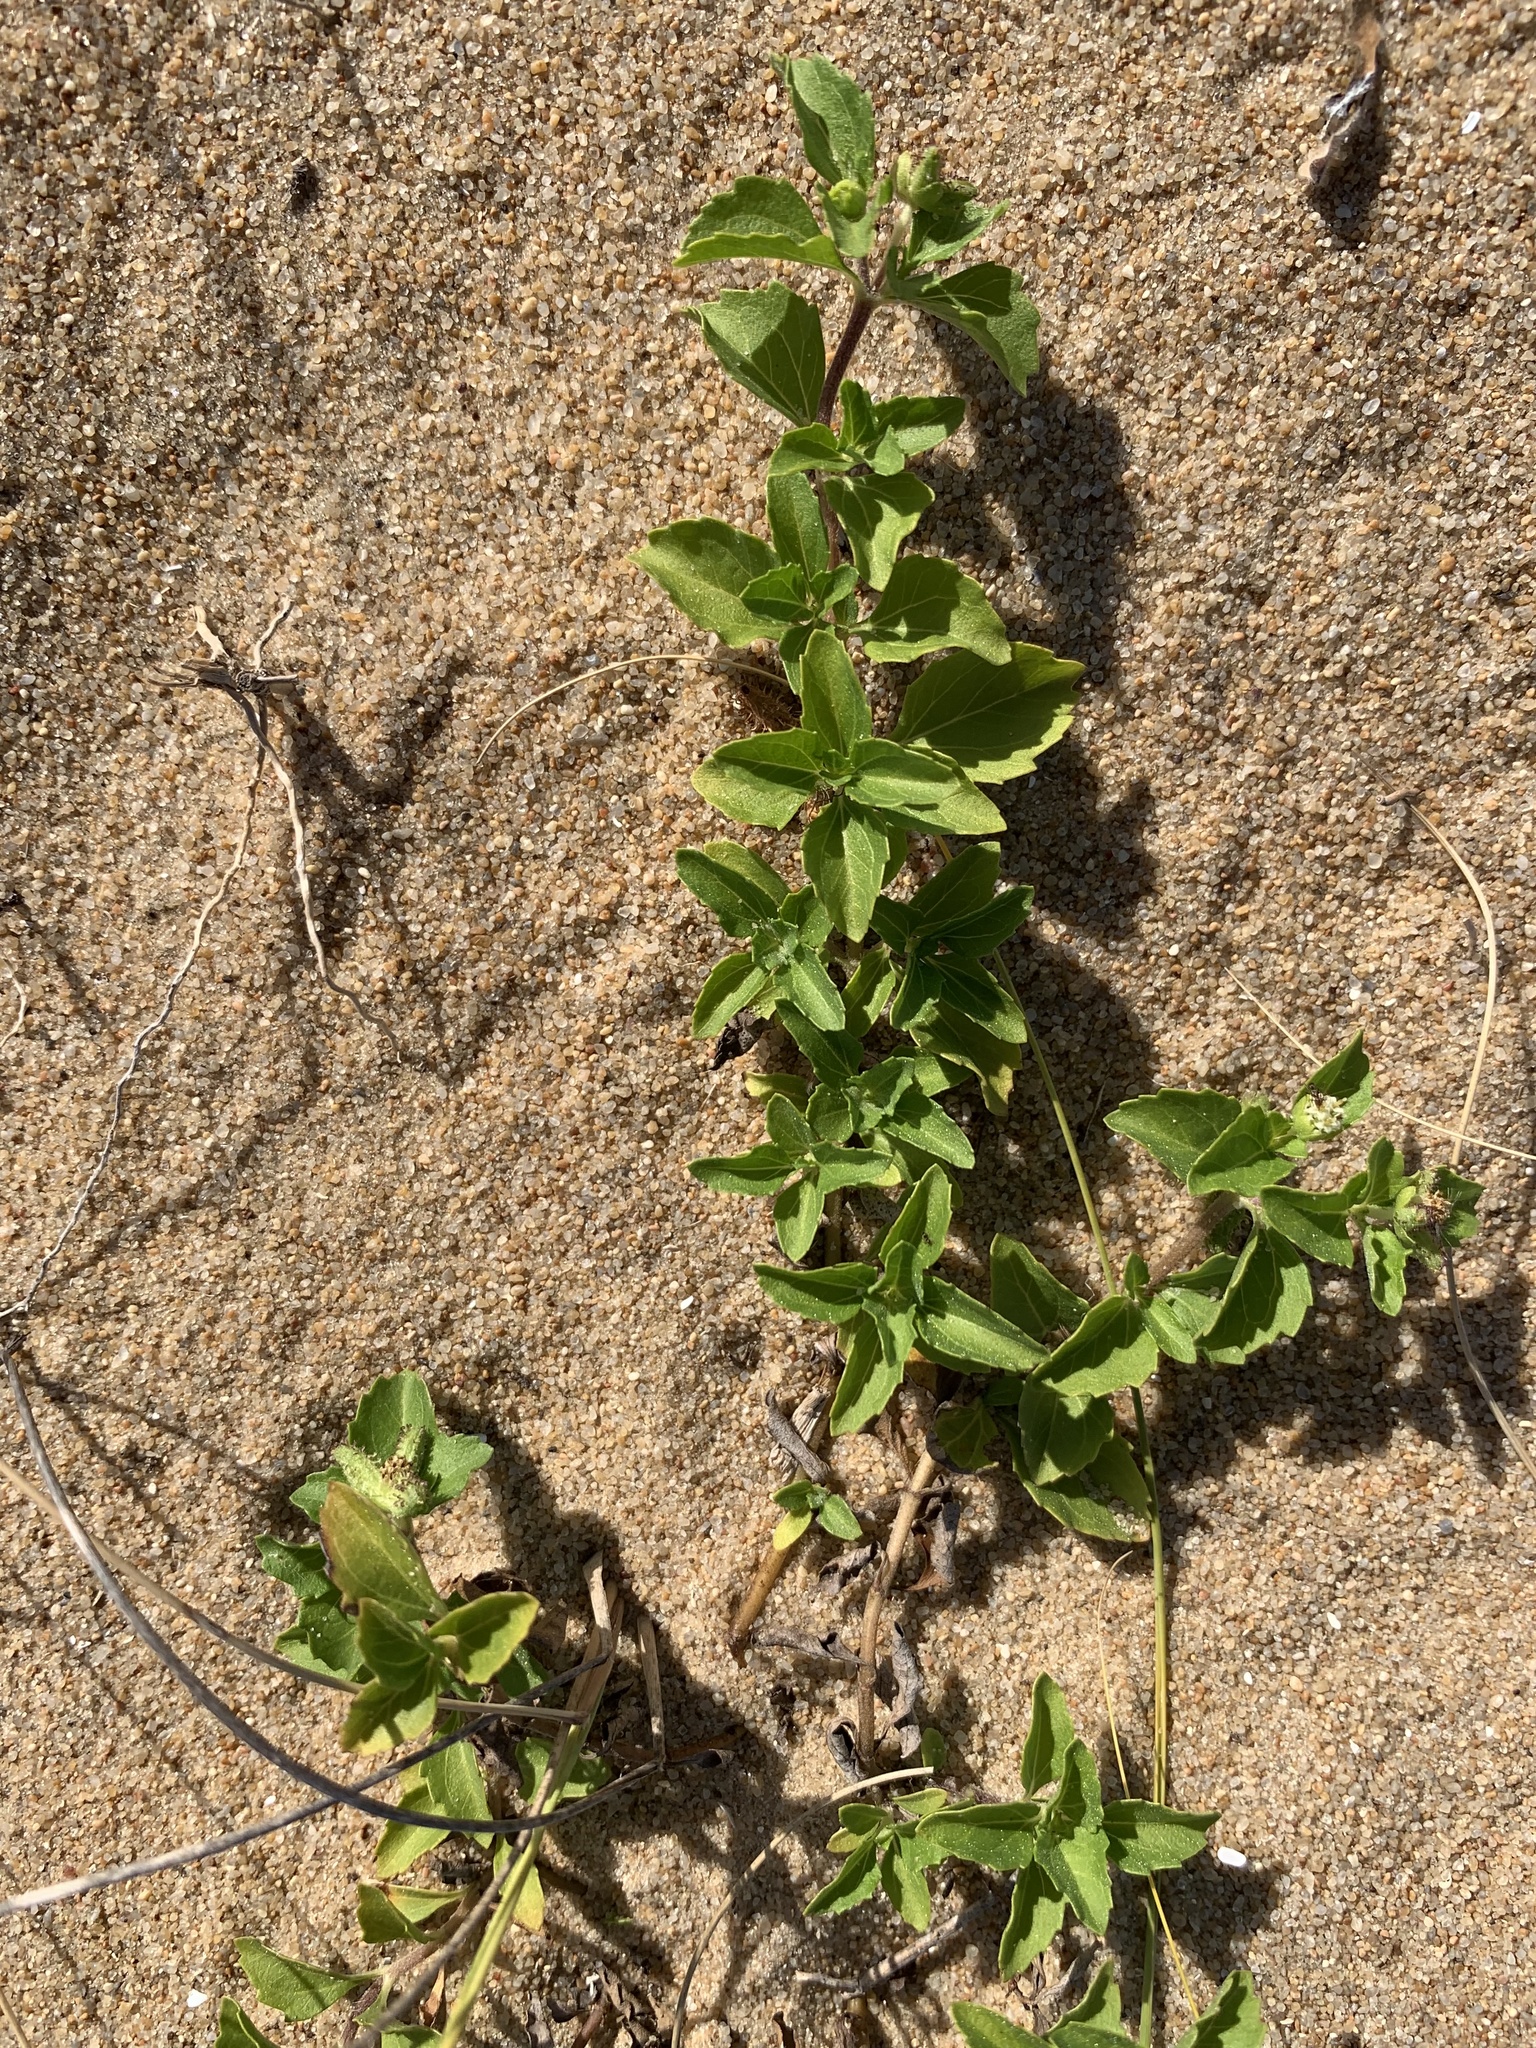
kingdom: Plantae
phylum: Tracheophyta
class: Magnoliopsida
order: Asterales
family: Asteraceae
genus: Acanthospermum
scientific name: Acanthospermum australe
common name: Paraguayan starbur
